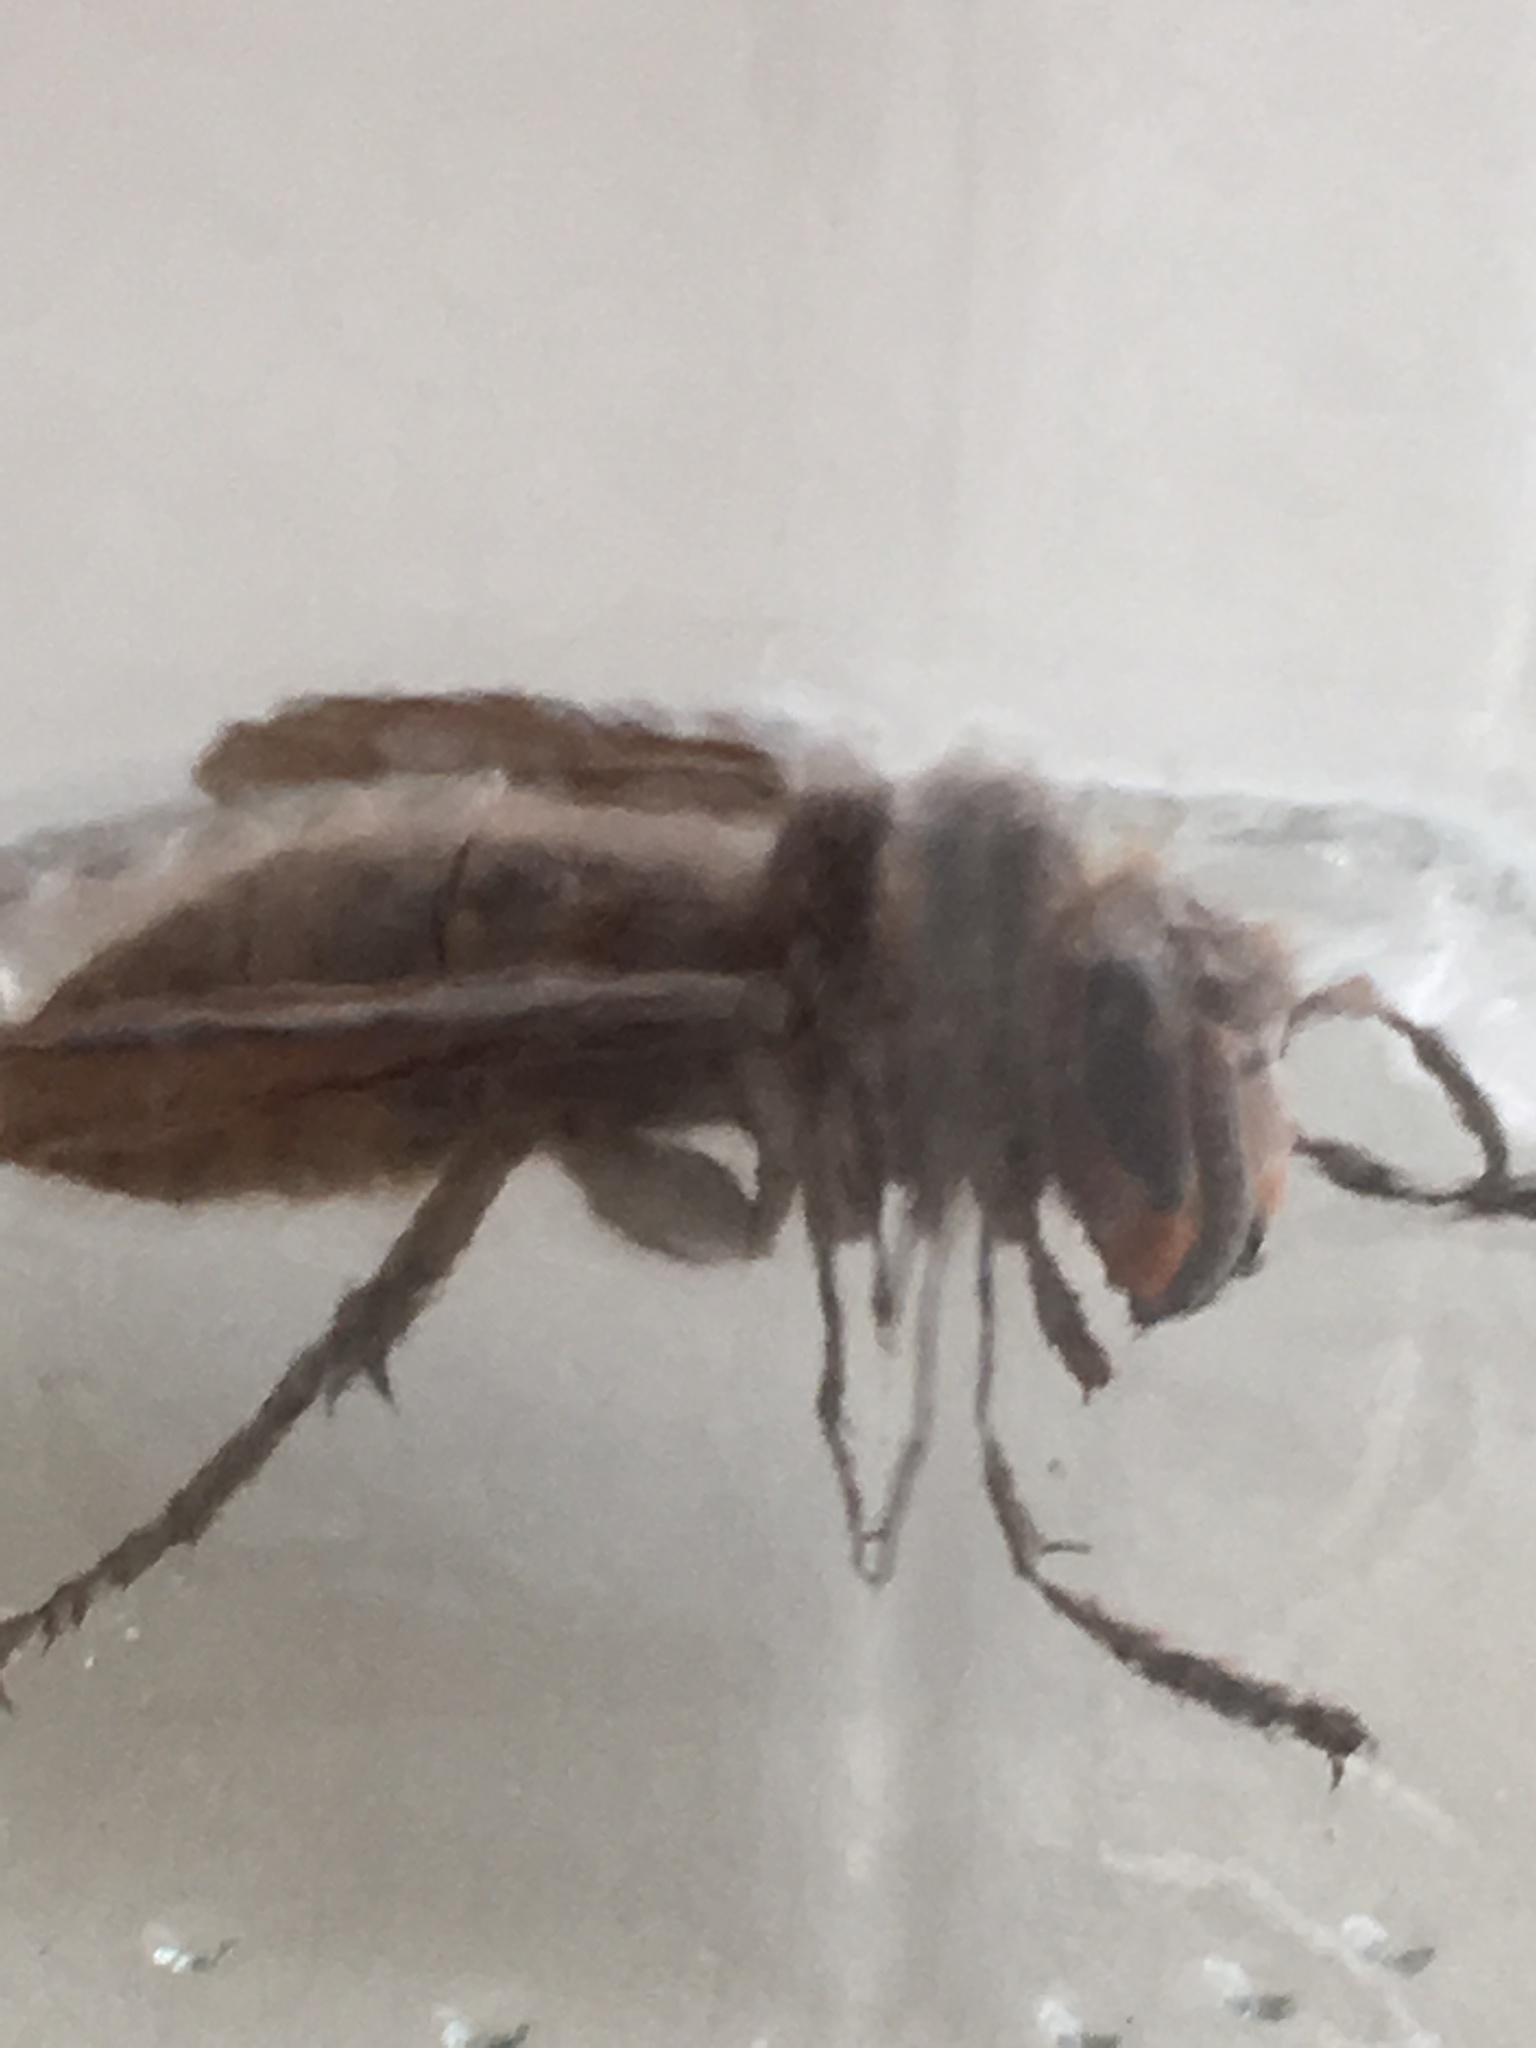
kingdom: Animalia
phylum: Arthropoda
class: Insecta
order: Hymenoptera
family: Vespidae
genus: Vespa
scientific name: Vespa crabro
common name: Hornet
